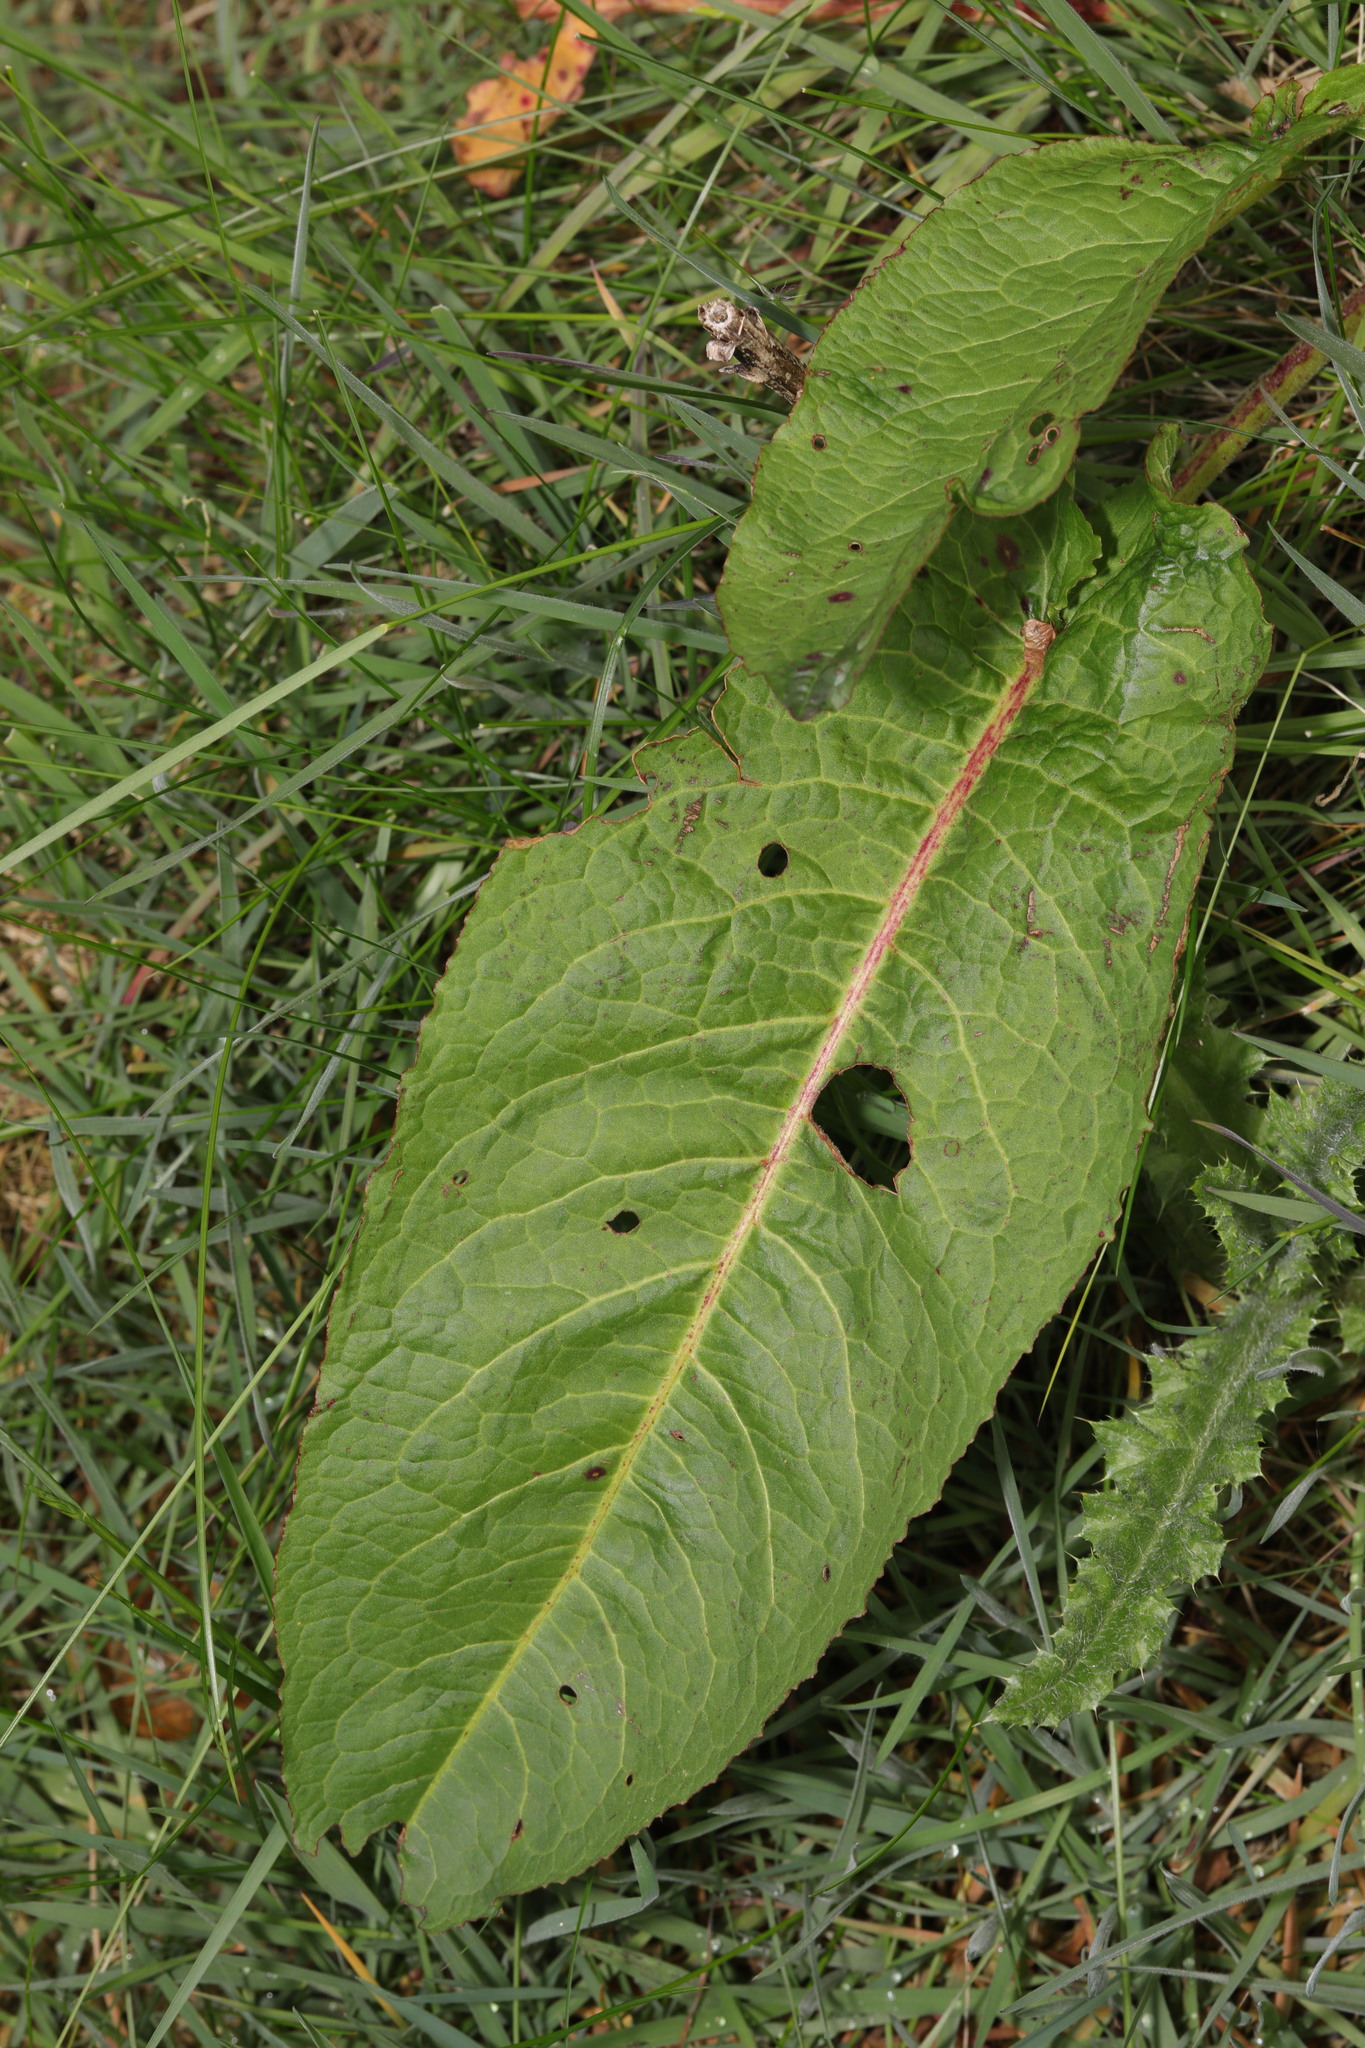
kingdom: Plantae
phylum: Tracheophyta
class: Magnoliopsida
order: Caryophyllales
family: Polygonaceae
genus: Rumex
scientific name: Rumex obtusifolius
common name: Bitter dock
